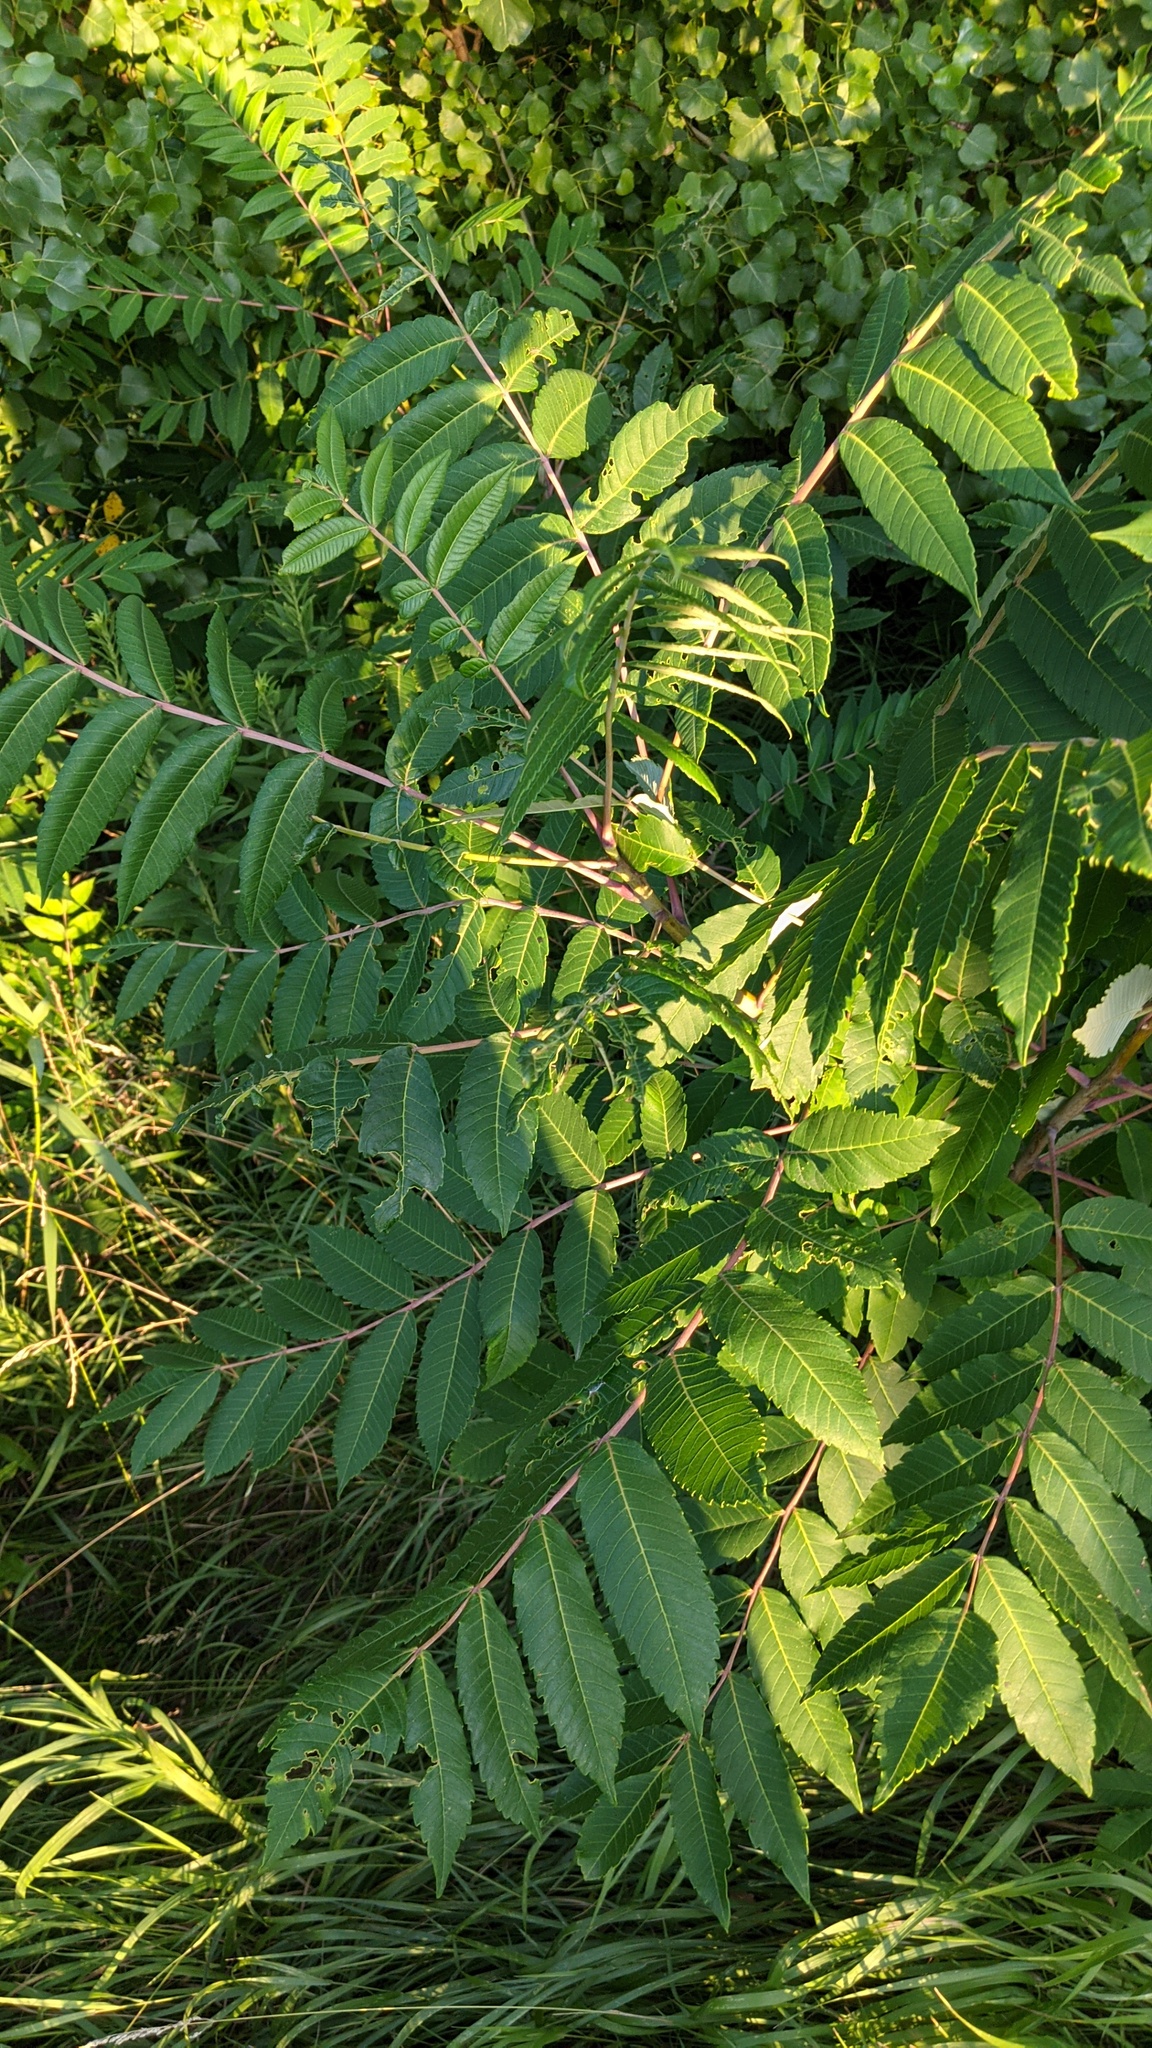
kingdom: Plantae
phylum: Tracheophyta
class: Magnoliopsida
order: Sapindales
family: Anacardiaceae
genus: Rhus
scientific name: Rhus glabra
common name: Scarlet sumac
